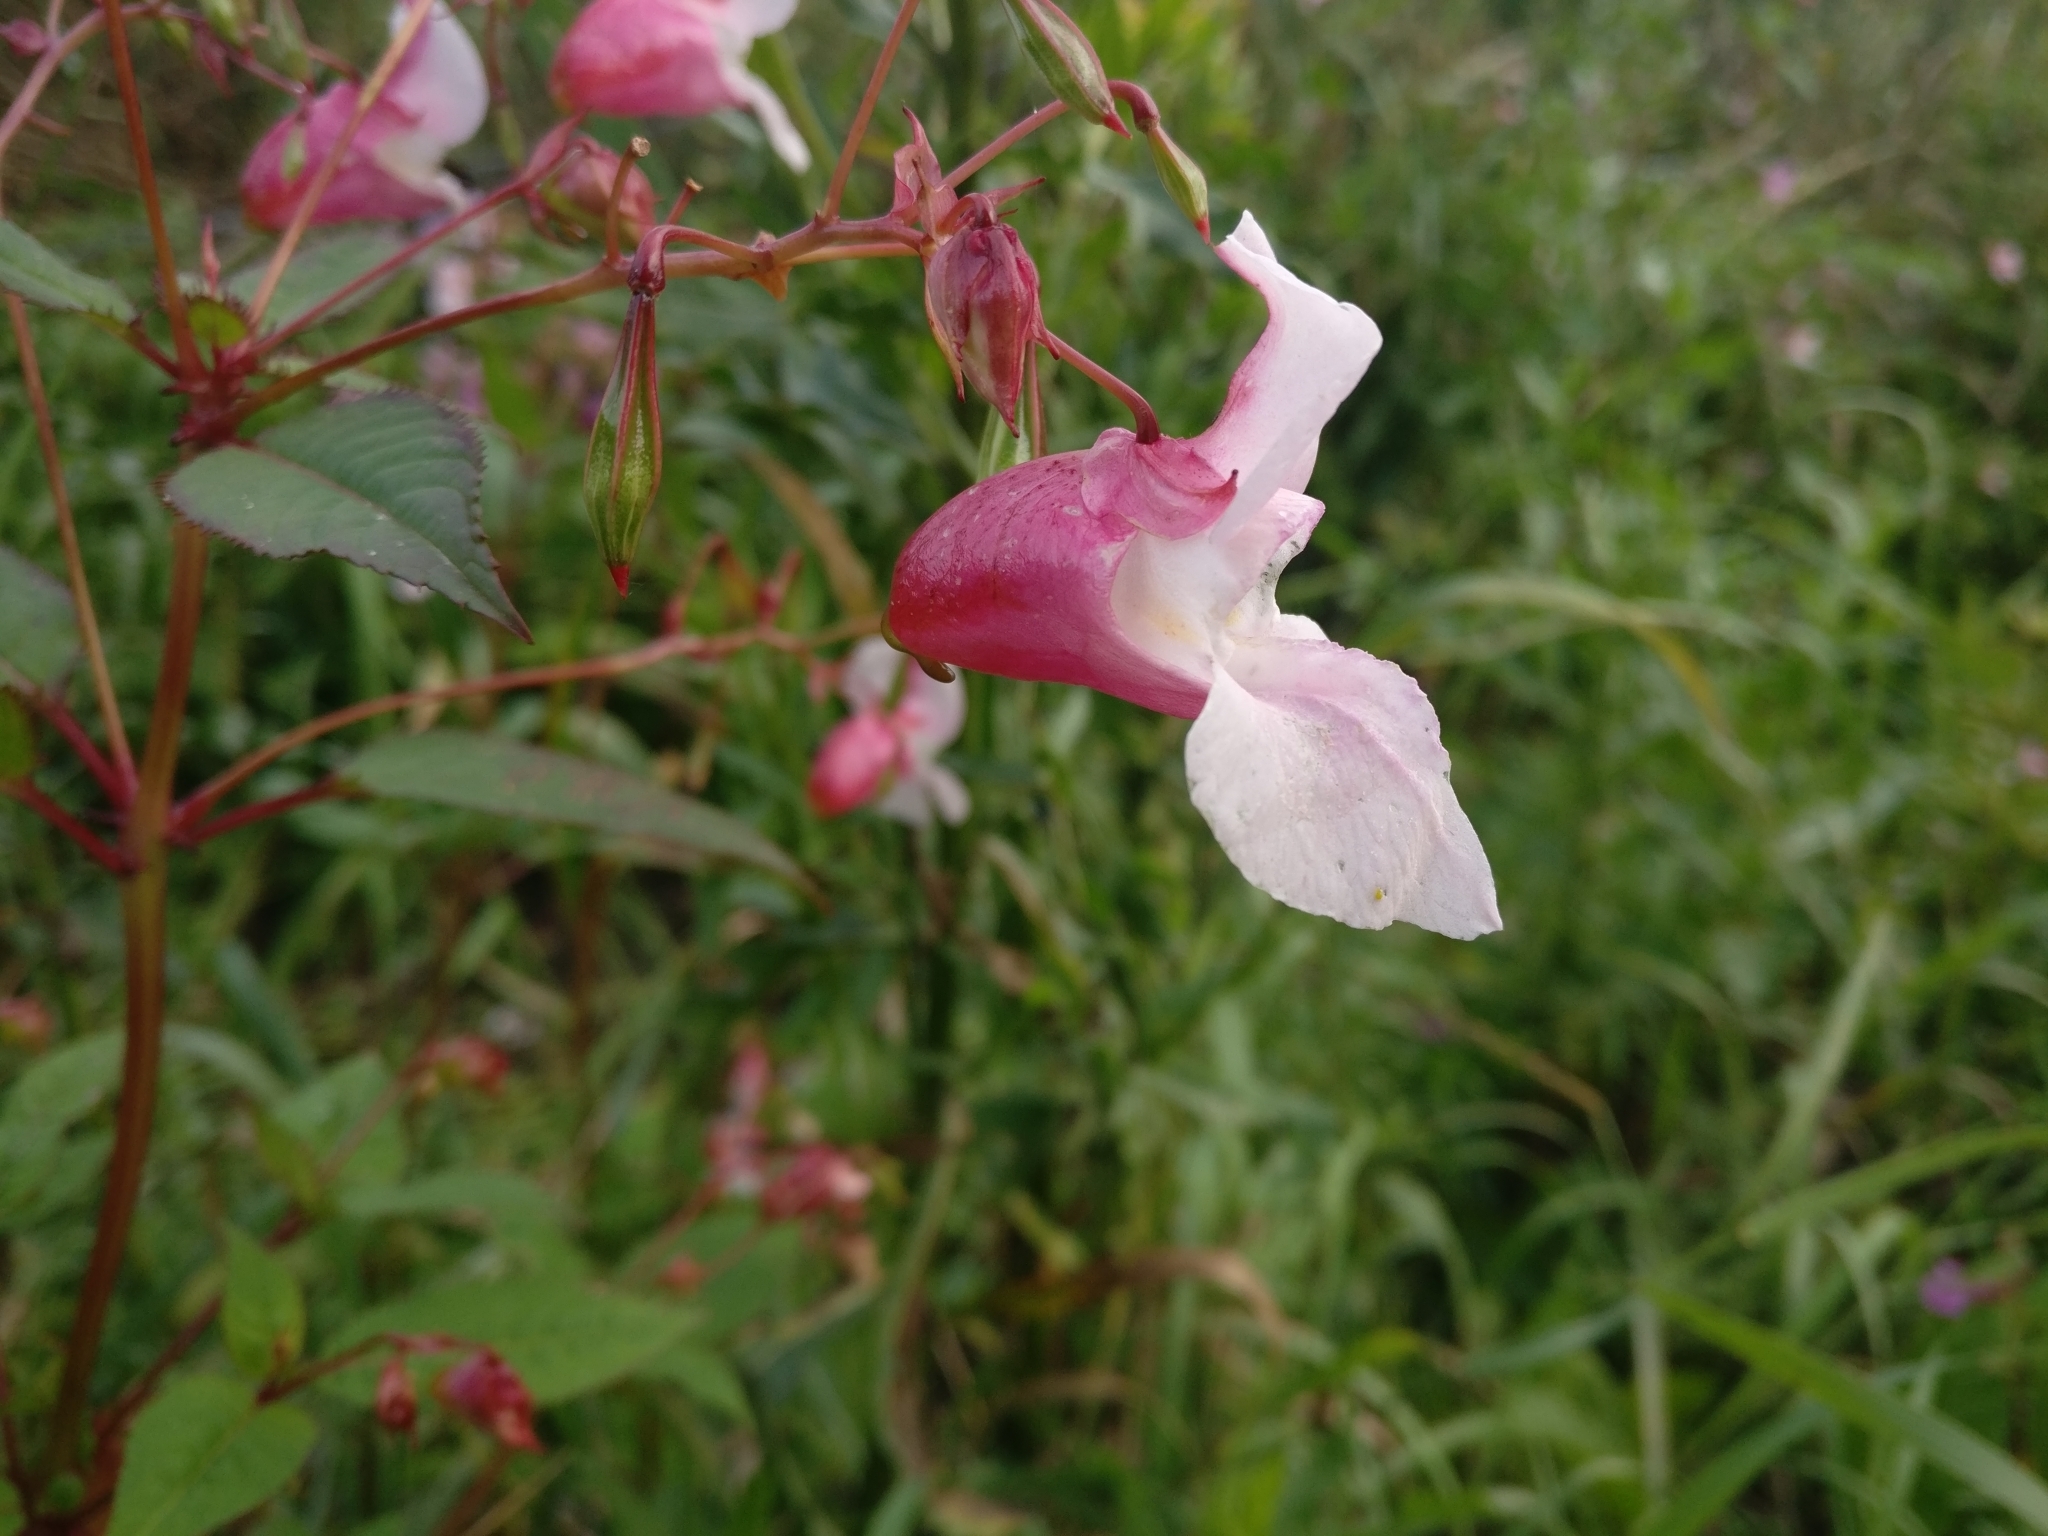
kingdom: Plantae
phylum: Tracheophyta
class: Magnoliopsida
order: Ericales
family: Balsaminaceae
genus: Impatiens
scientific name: Impatiens glandulifera
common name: Himalayan balsam
